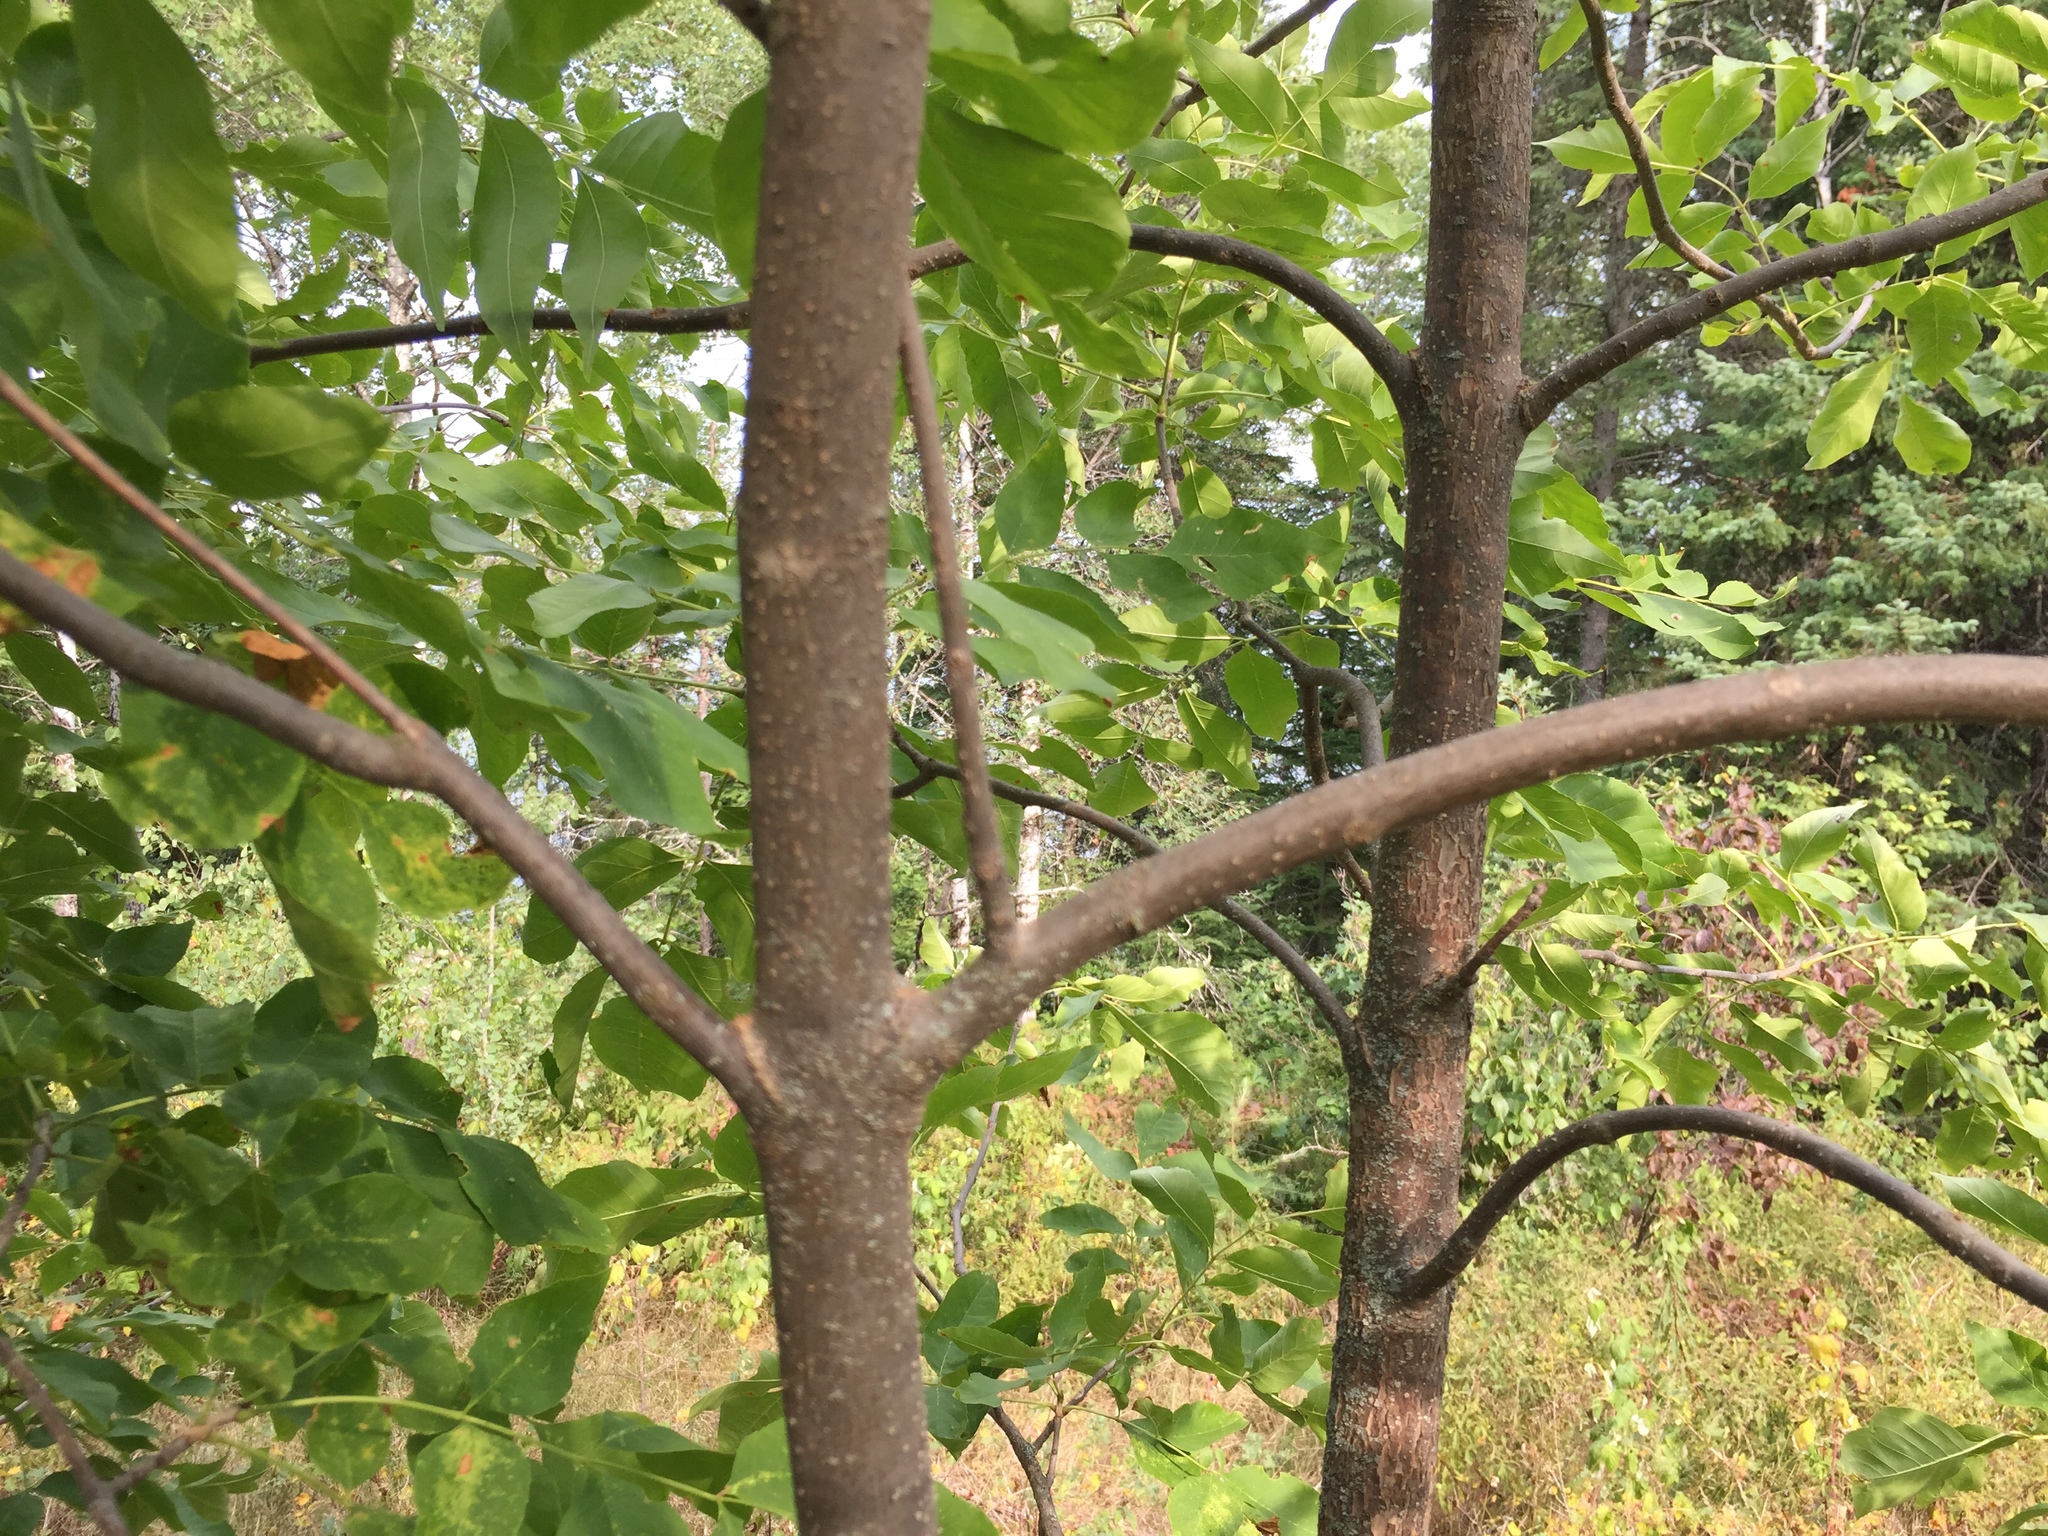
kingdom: Plantae
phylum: Tracheophyta
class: Magnoliopsida
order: Lamiales
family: Oleaceae
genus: Fraxinus
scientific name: Fraxinus pennsylvanica
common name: Green ash
